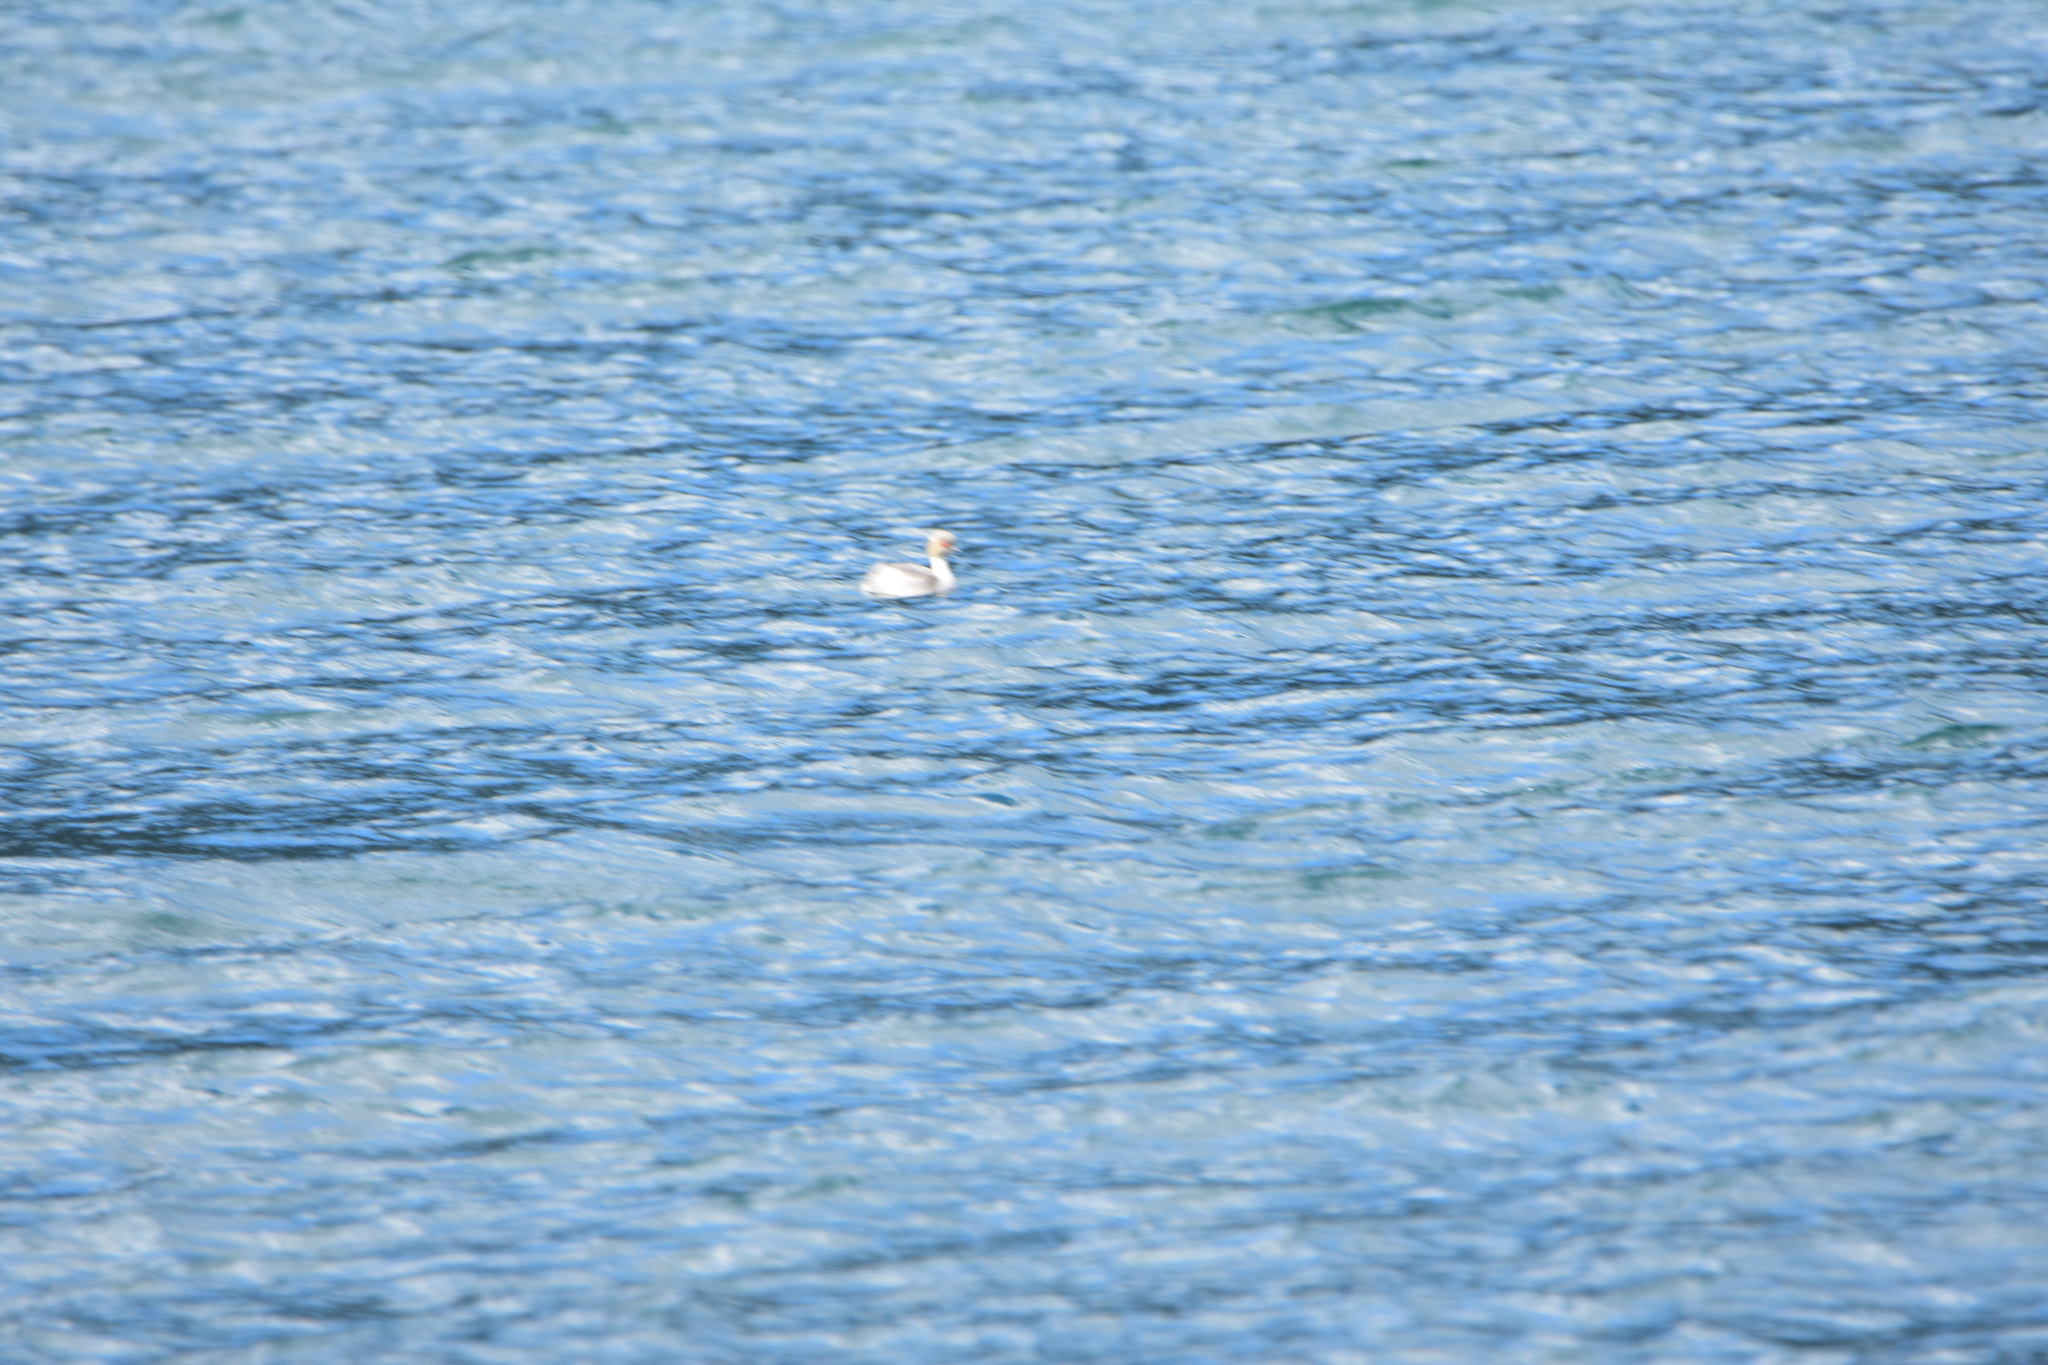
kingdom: Animalia
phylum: Chordata
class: Aves
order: Podicipediformes
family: Podicipedidae
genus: Podiceps
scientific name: Podiceps occipitalis
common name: Silvery grebe
